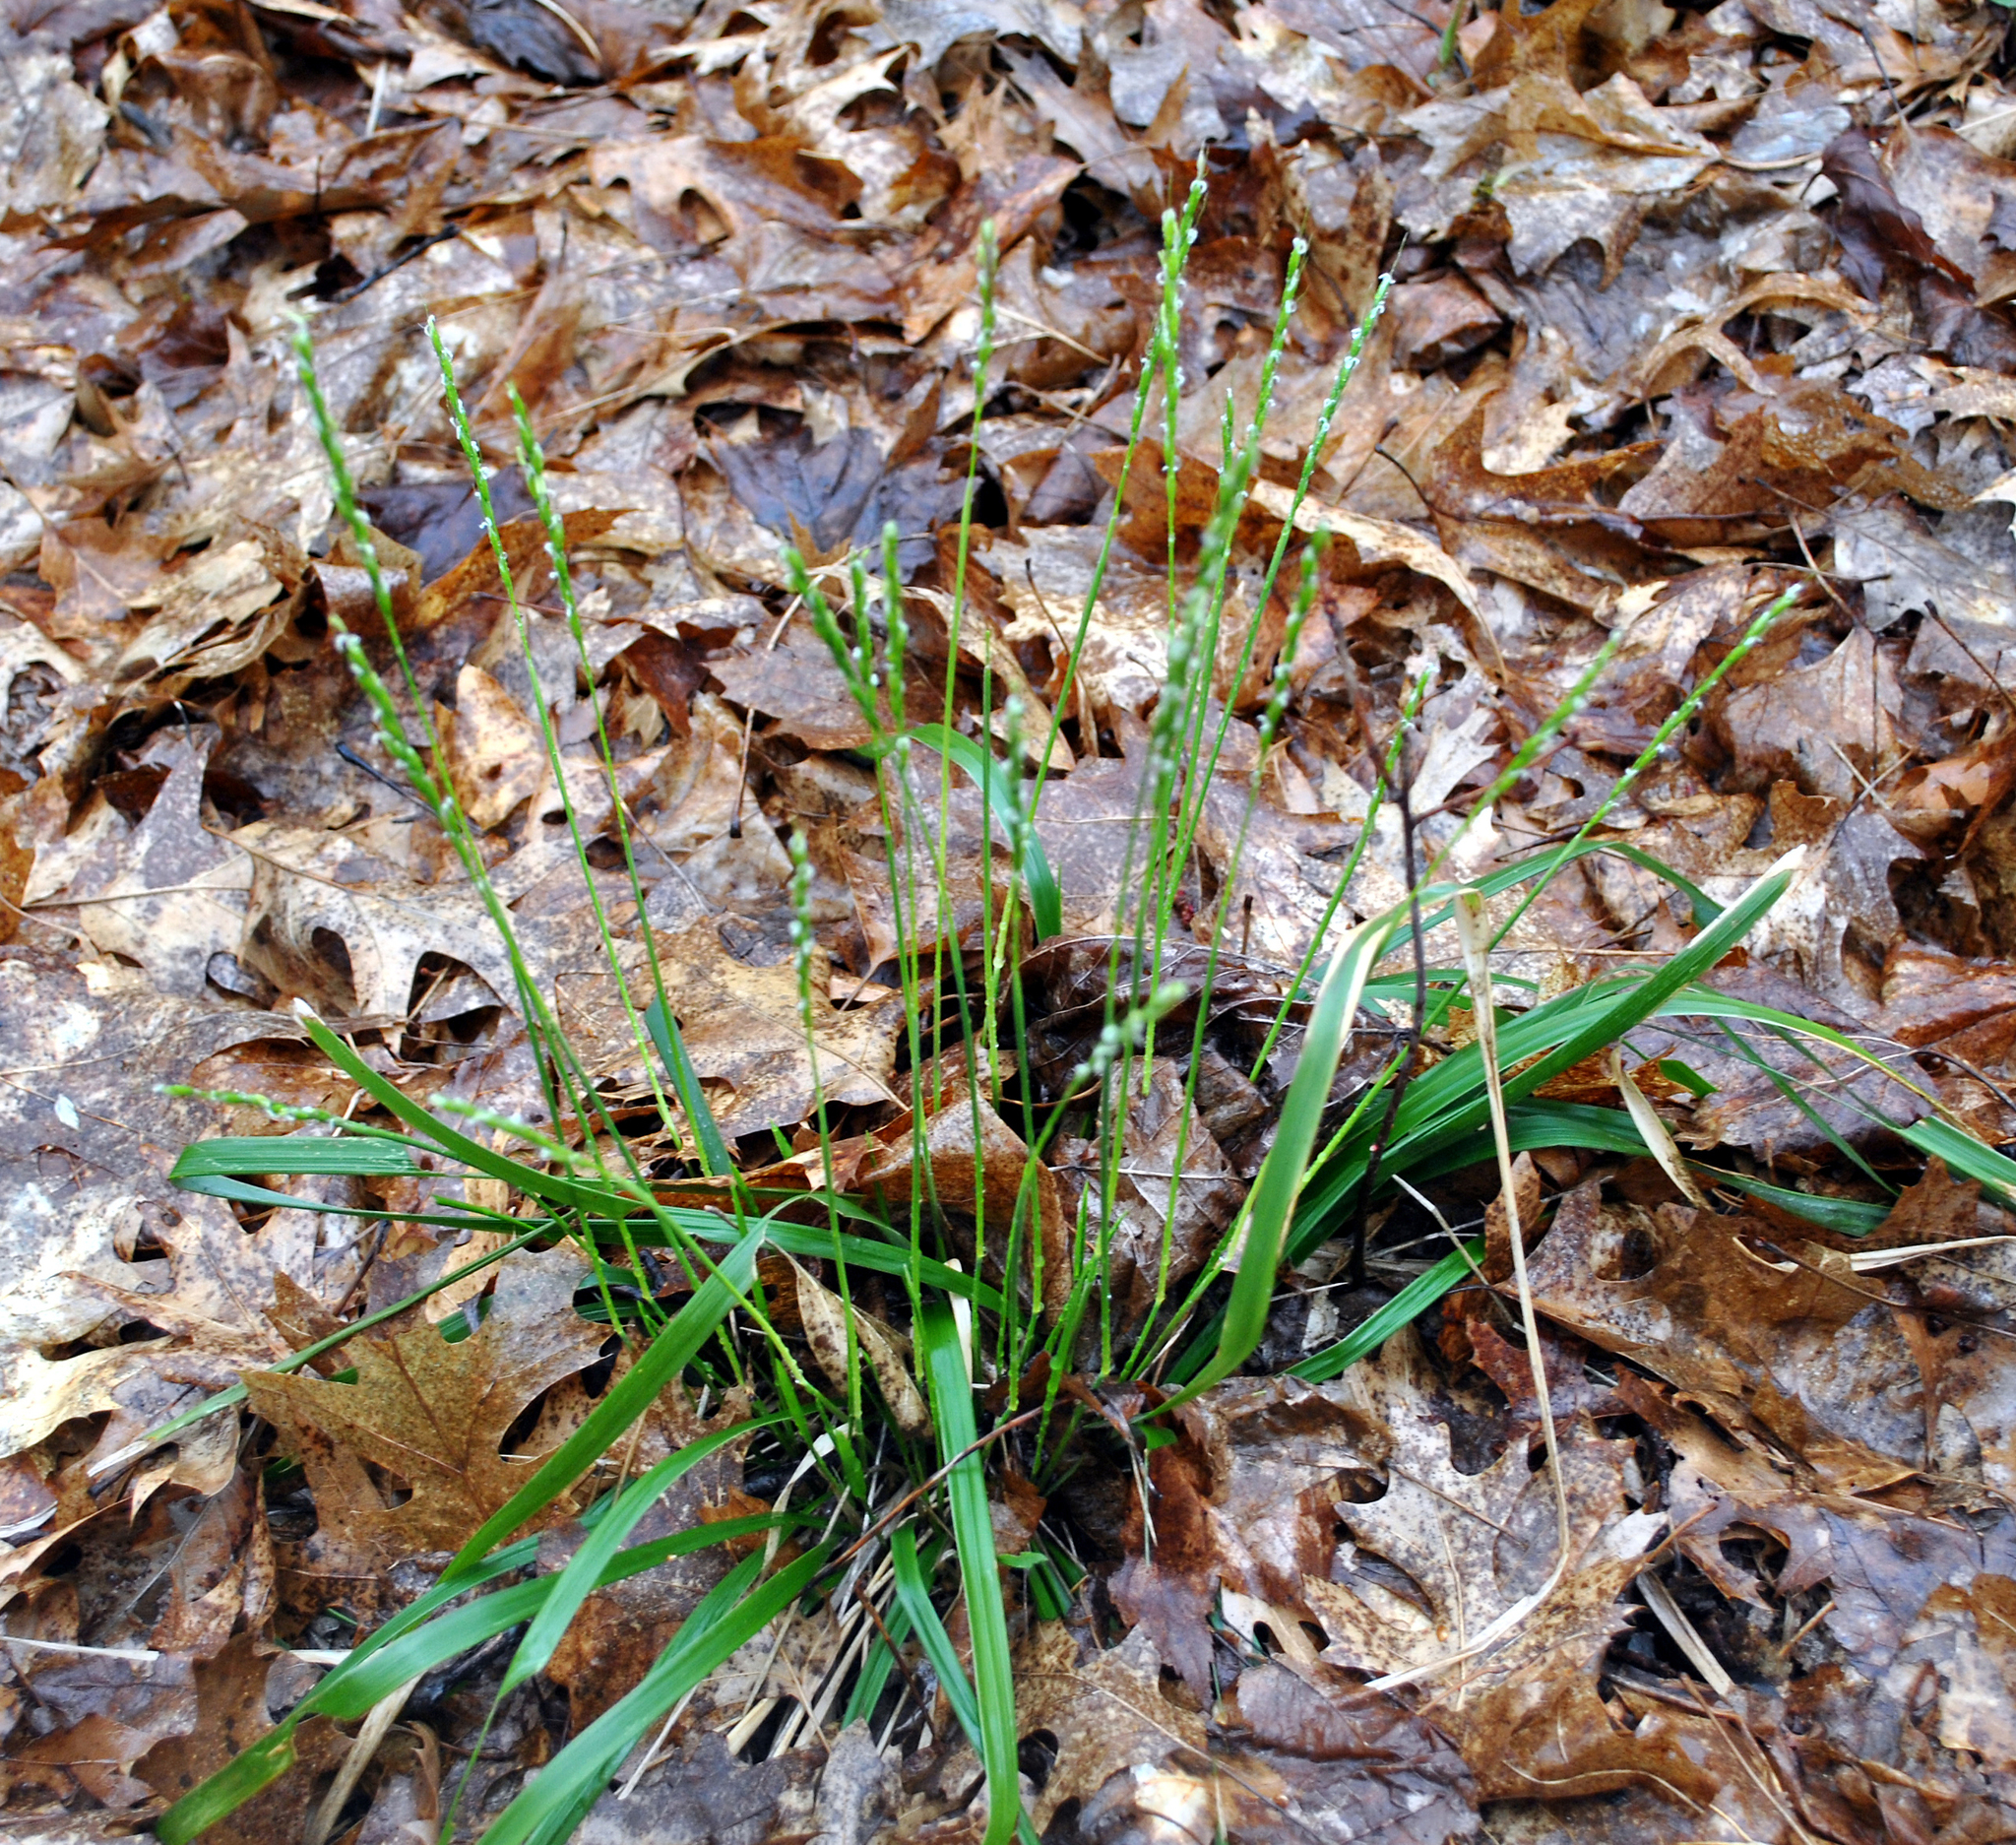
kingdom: Plantae
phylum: Tracheophyta
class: Liliopsida
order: Poales
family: Poaceae
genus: Oryzopsis
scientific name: Oryzopsis asperifolia
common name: Rough-leaved mountain rice
